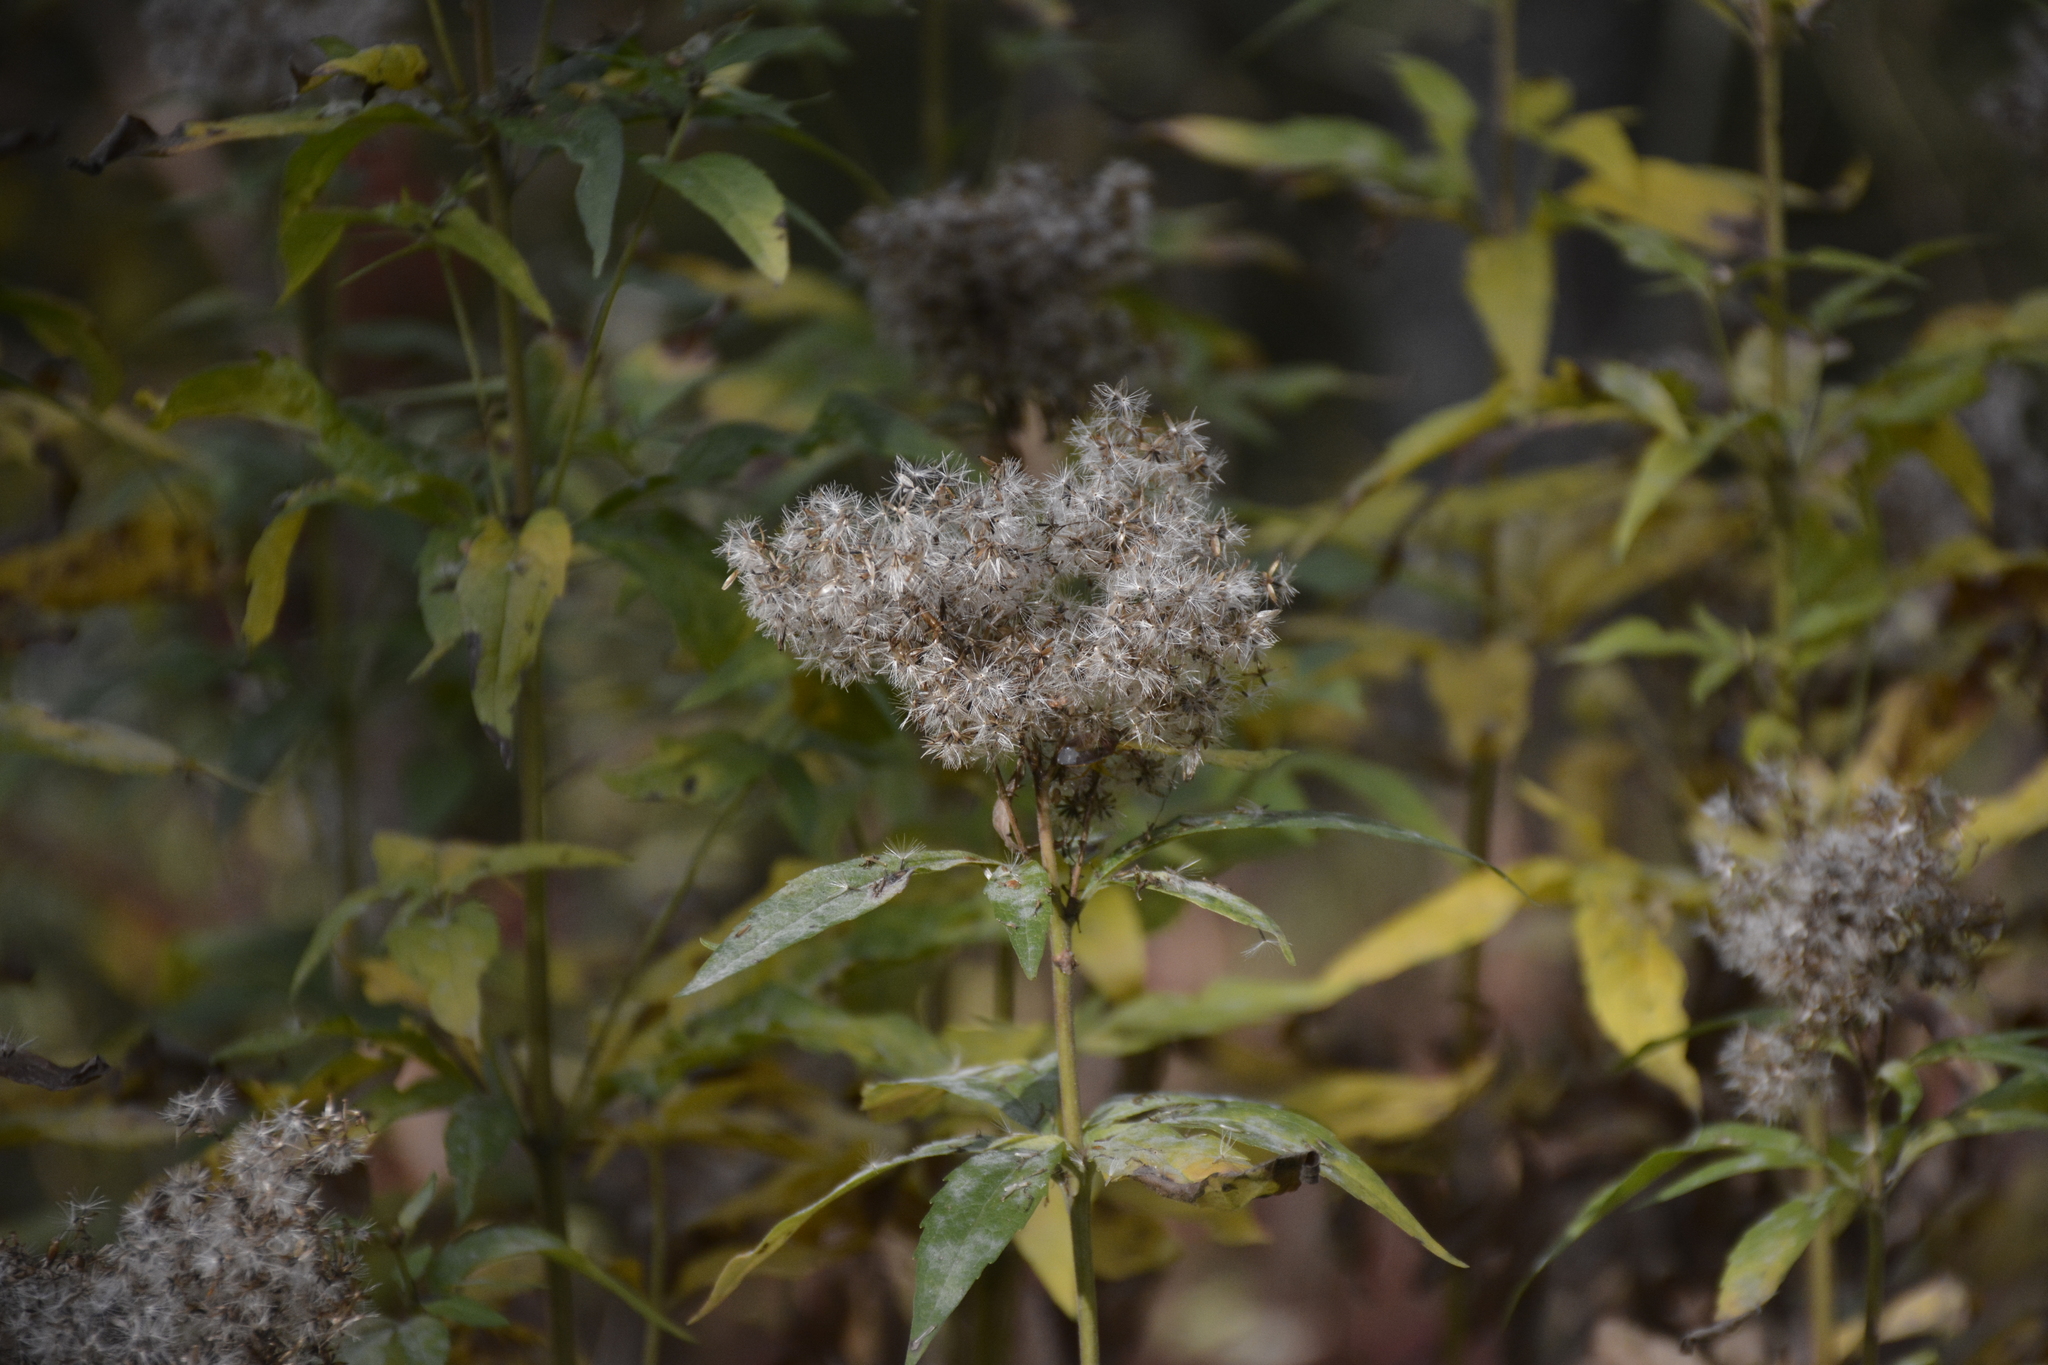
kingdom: Plantae
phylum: Tracheophyta
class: Magnoliopsida
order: Asterales
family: Asteraceae
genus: Eupatorium
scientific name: Eupatorium cannabinum
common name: Hemp-agrimony
